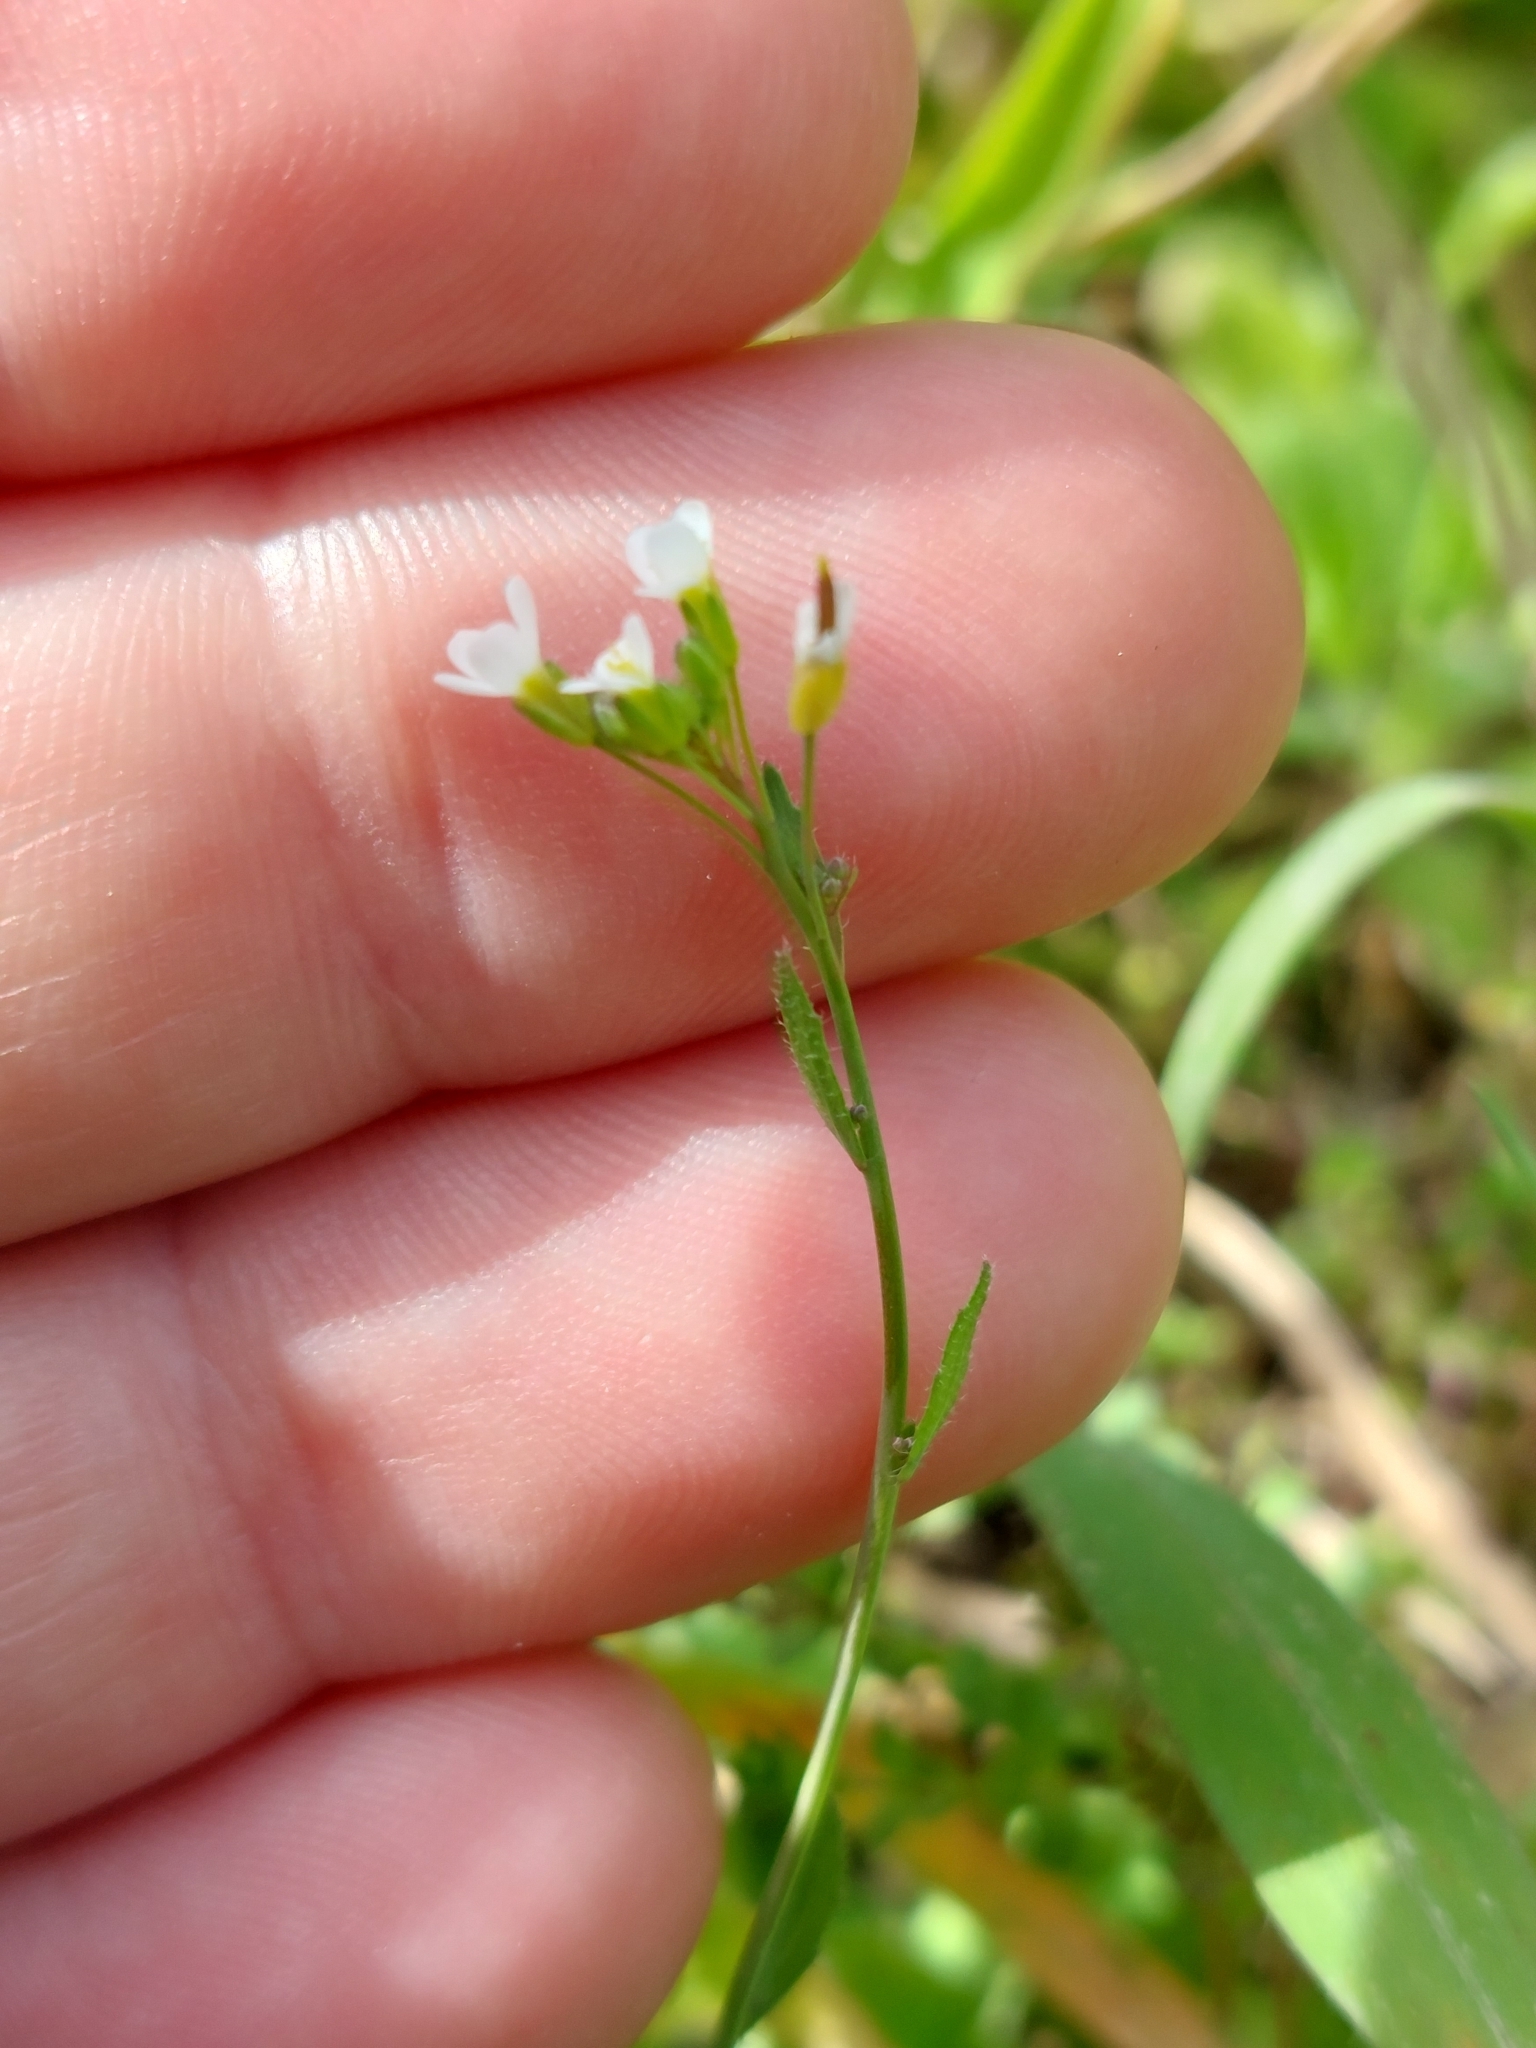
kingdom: Plantae
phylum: Tracheophyta
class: Magnoliopsida
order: Brassicales
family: Brassicaceae
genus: Arabidopsis
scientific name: Arabidopsis thaliana
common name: Thale cress
